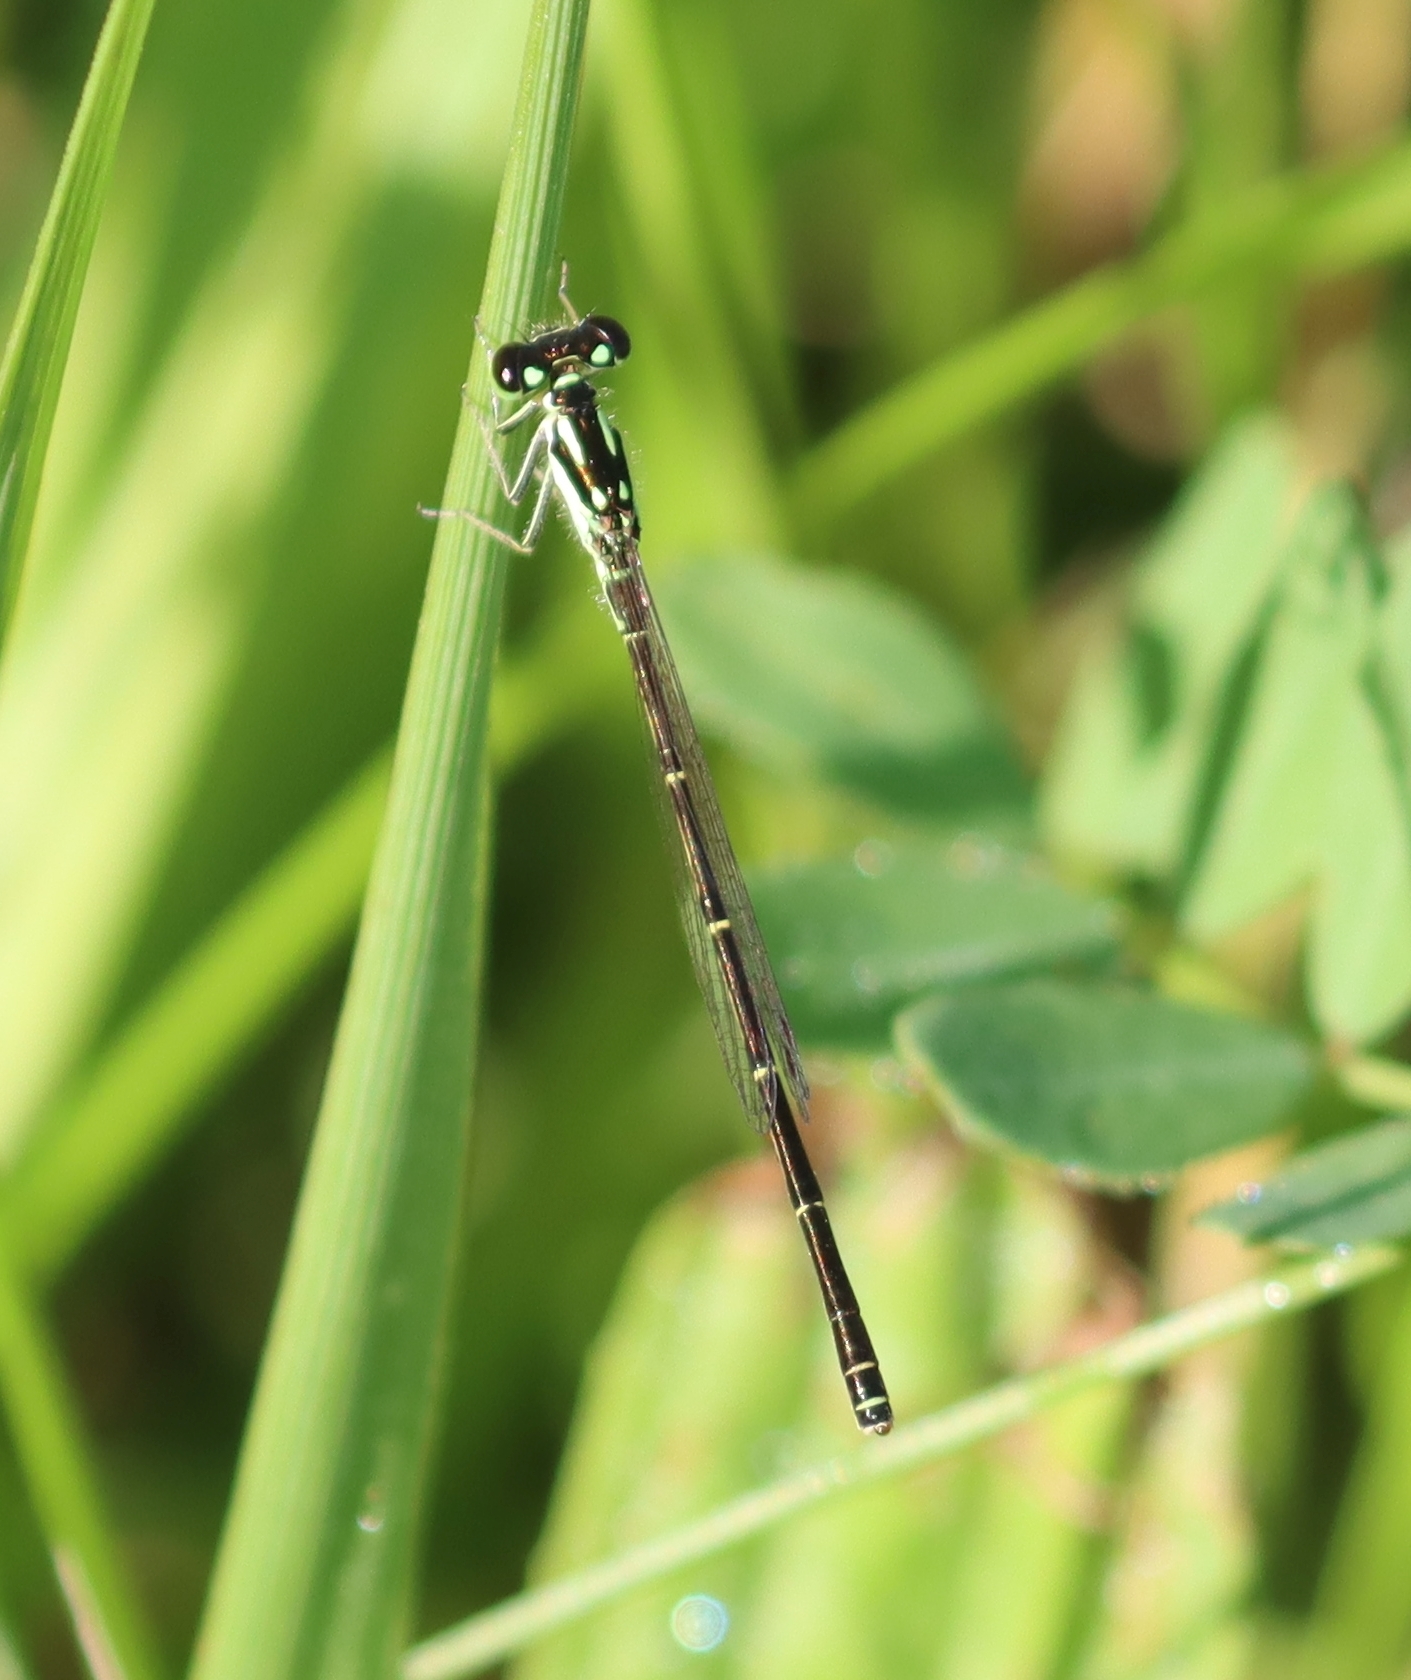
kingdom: Animalia
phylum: Arthropoda
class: Insecta
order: Odonata
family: Coenagrionidae
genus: Ischnura
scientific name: Ischnura posita
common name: Fragile forktail
